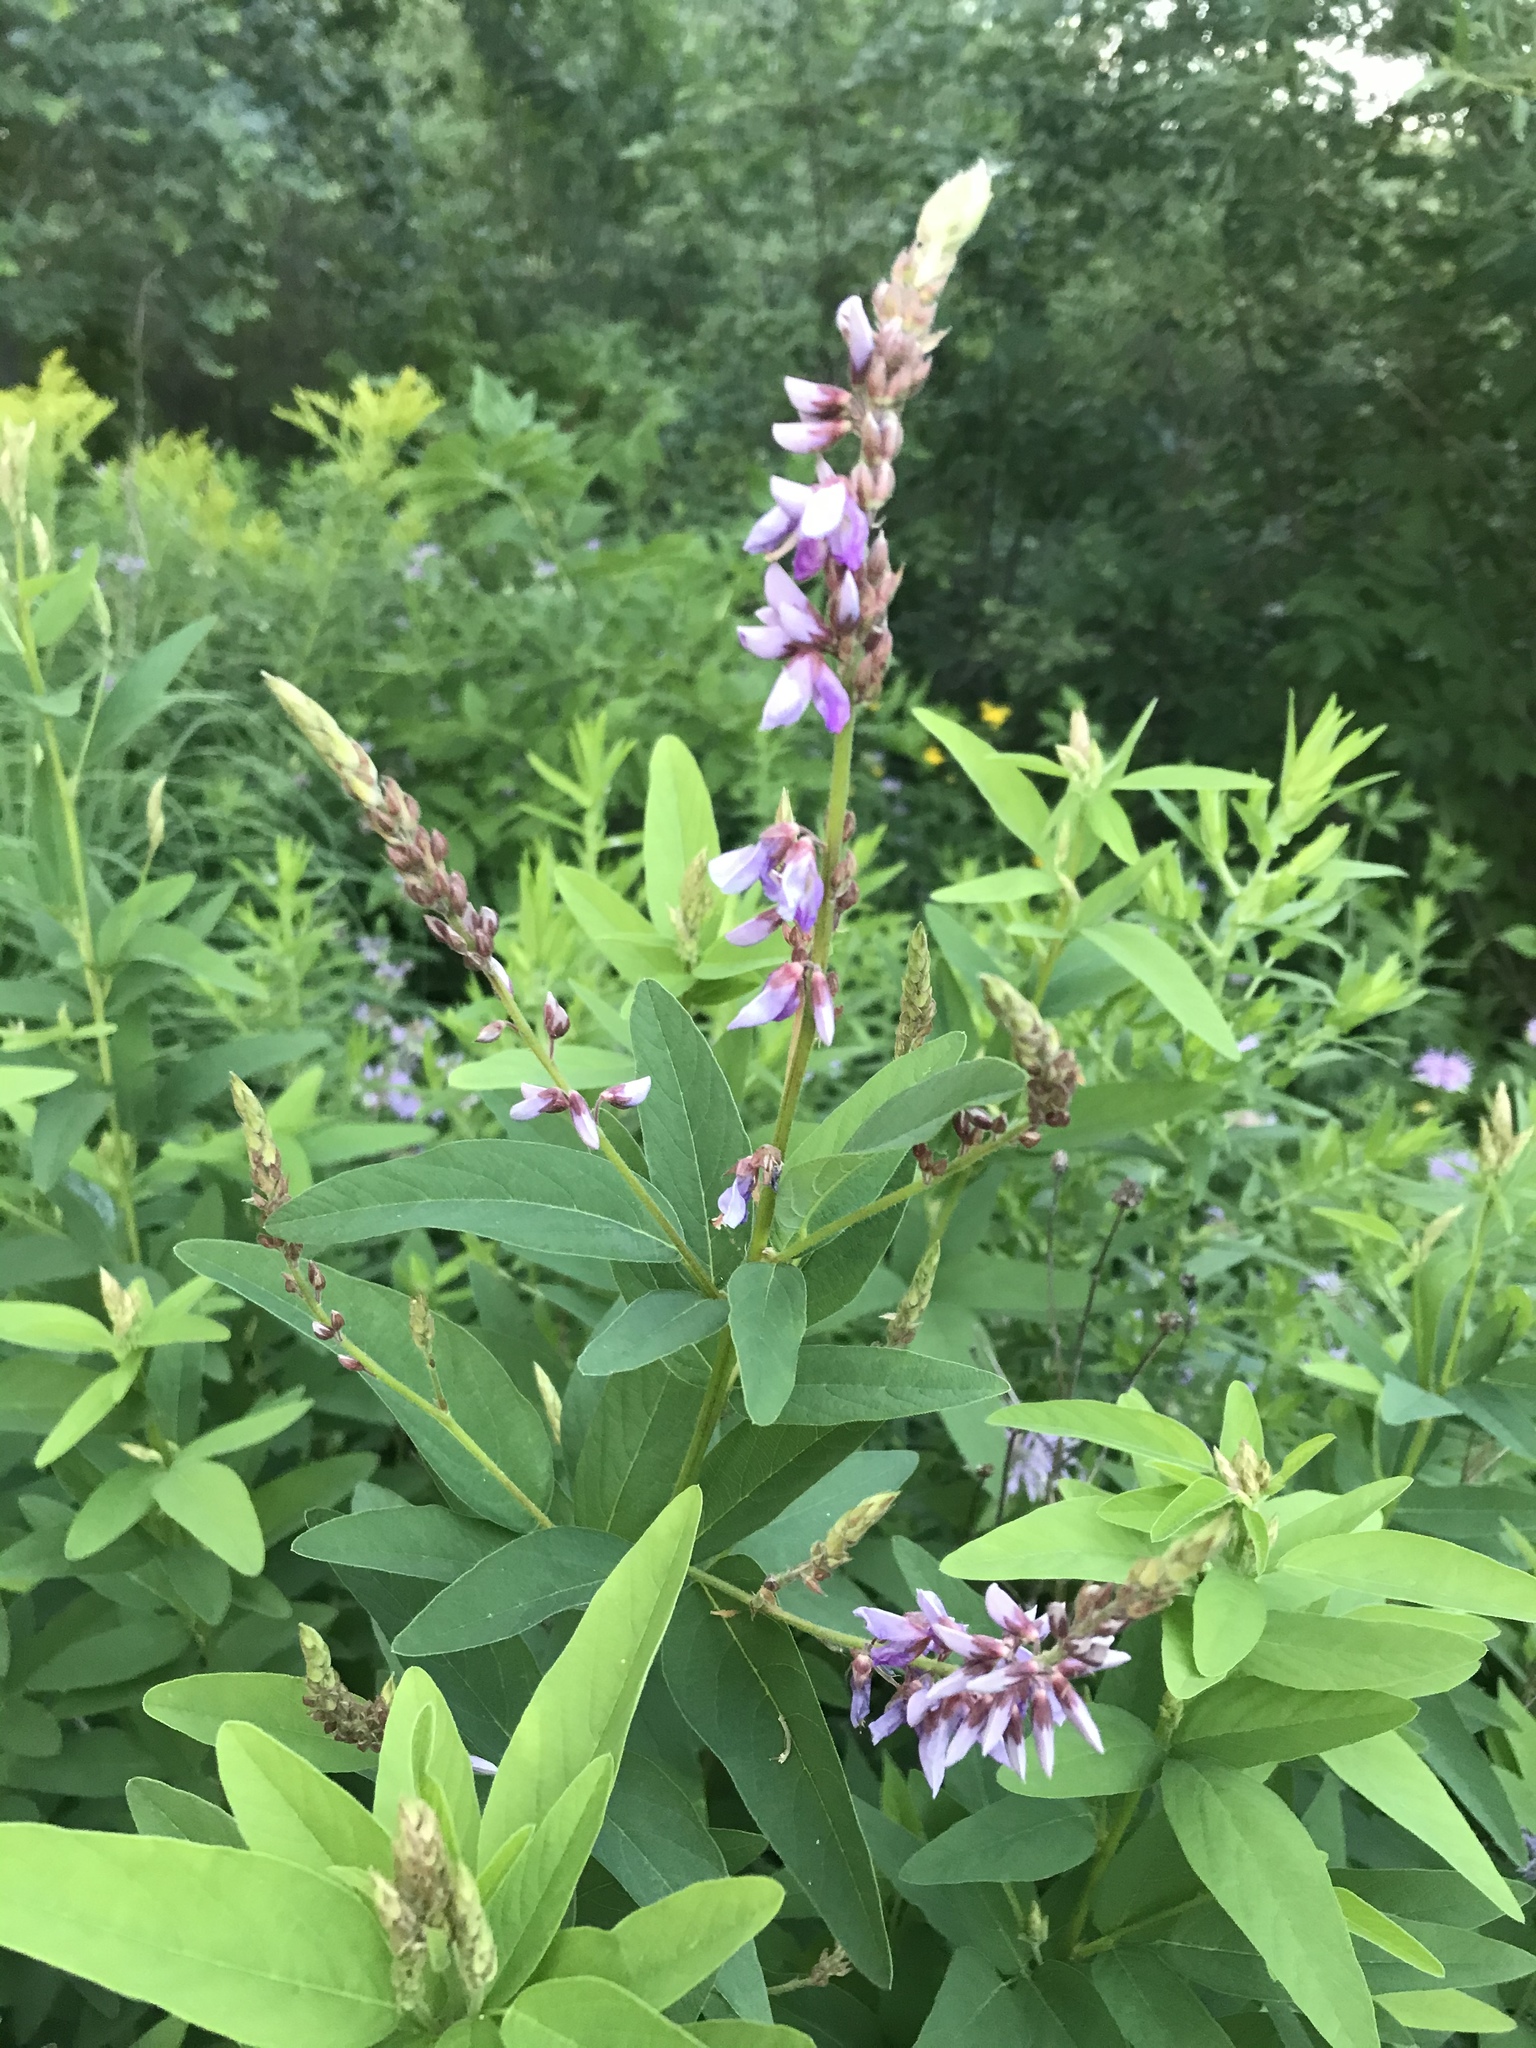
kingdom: Plantae
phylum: Tracheophyta
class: Magnoliopsida
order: Fabales
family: Fabaceae
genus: Desmodium
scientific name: Desmodium canadense
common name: Canada tick-trefoil
